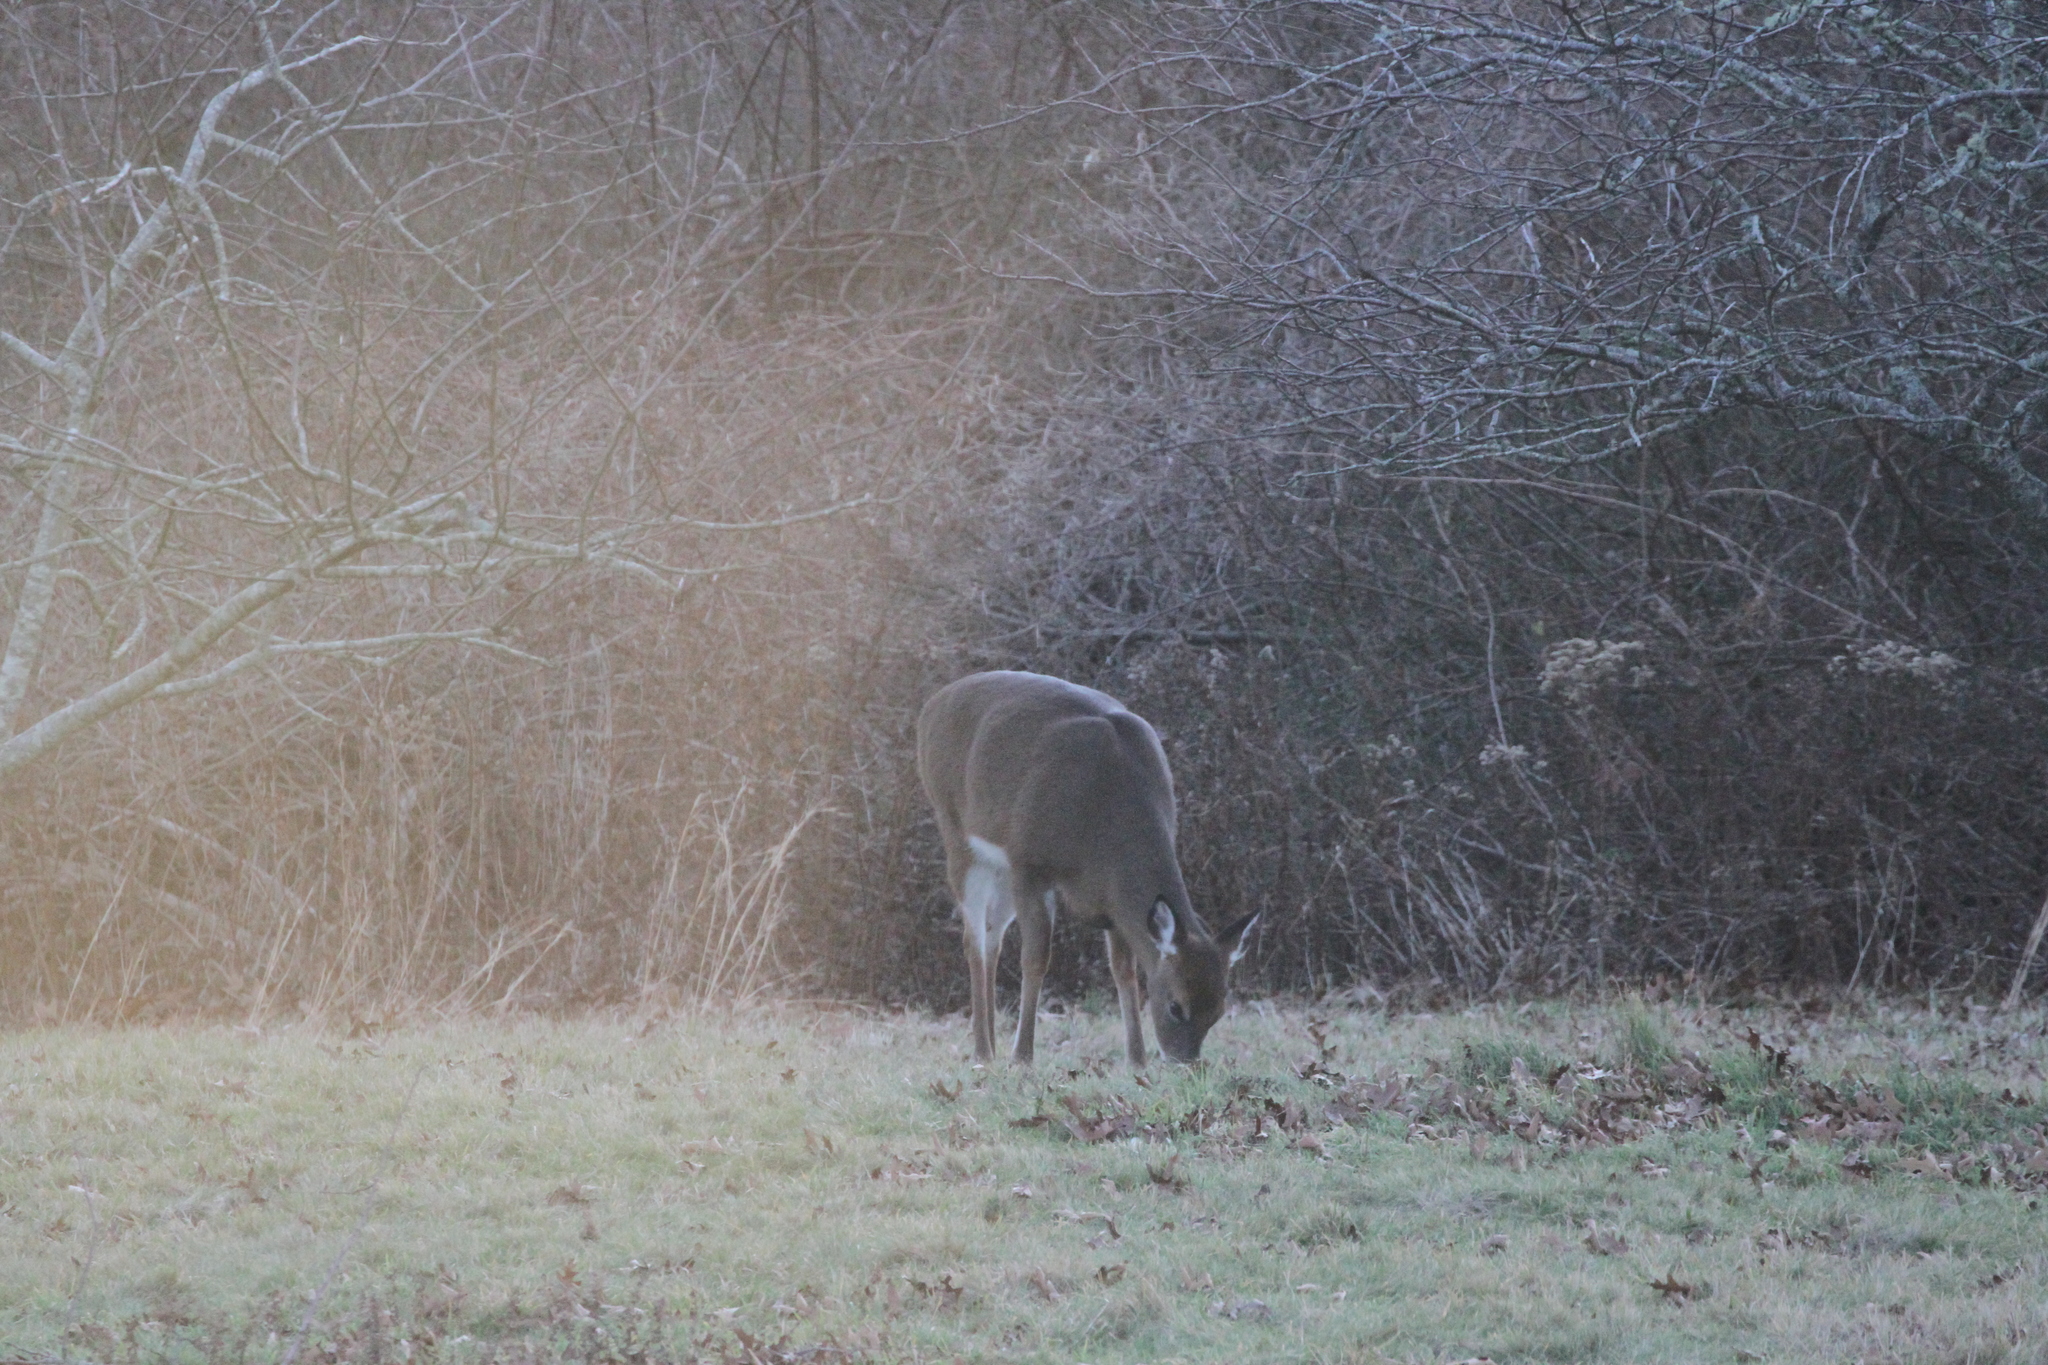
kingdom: Animalia
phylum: Chordata
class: Mammalia
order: Artiodactyla
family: Cervidae
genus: Odocoileus
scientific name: Odocoileus virginianus
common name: White-tailed deer
